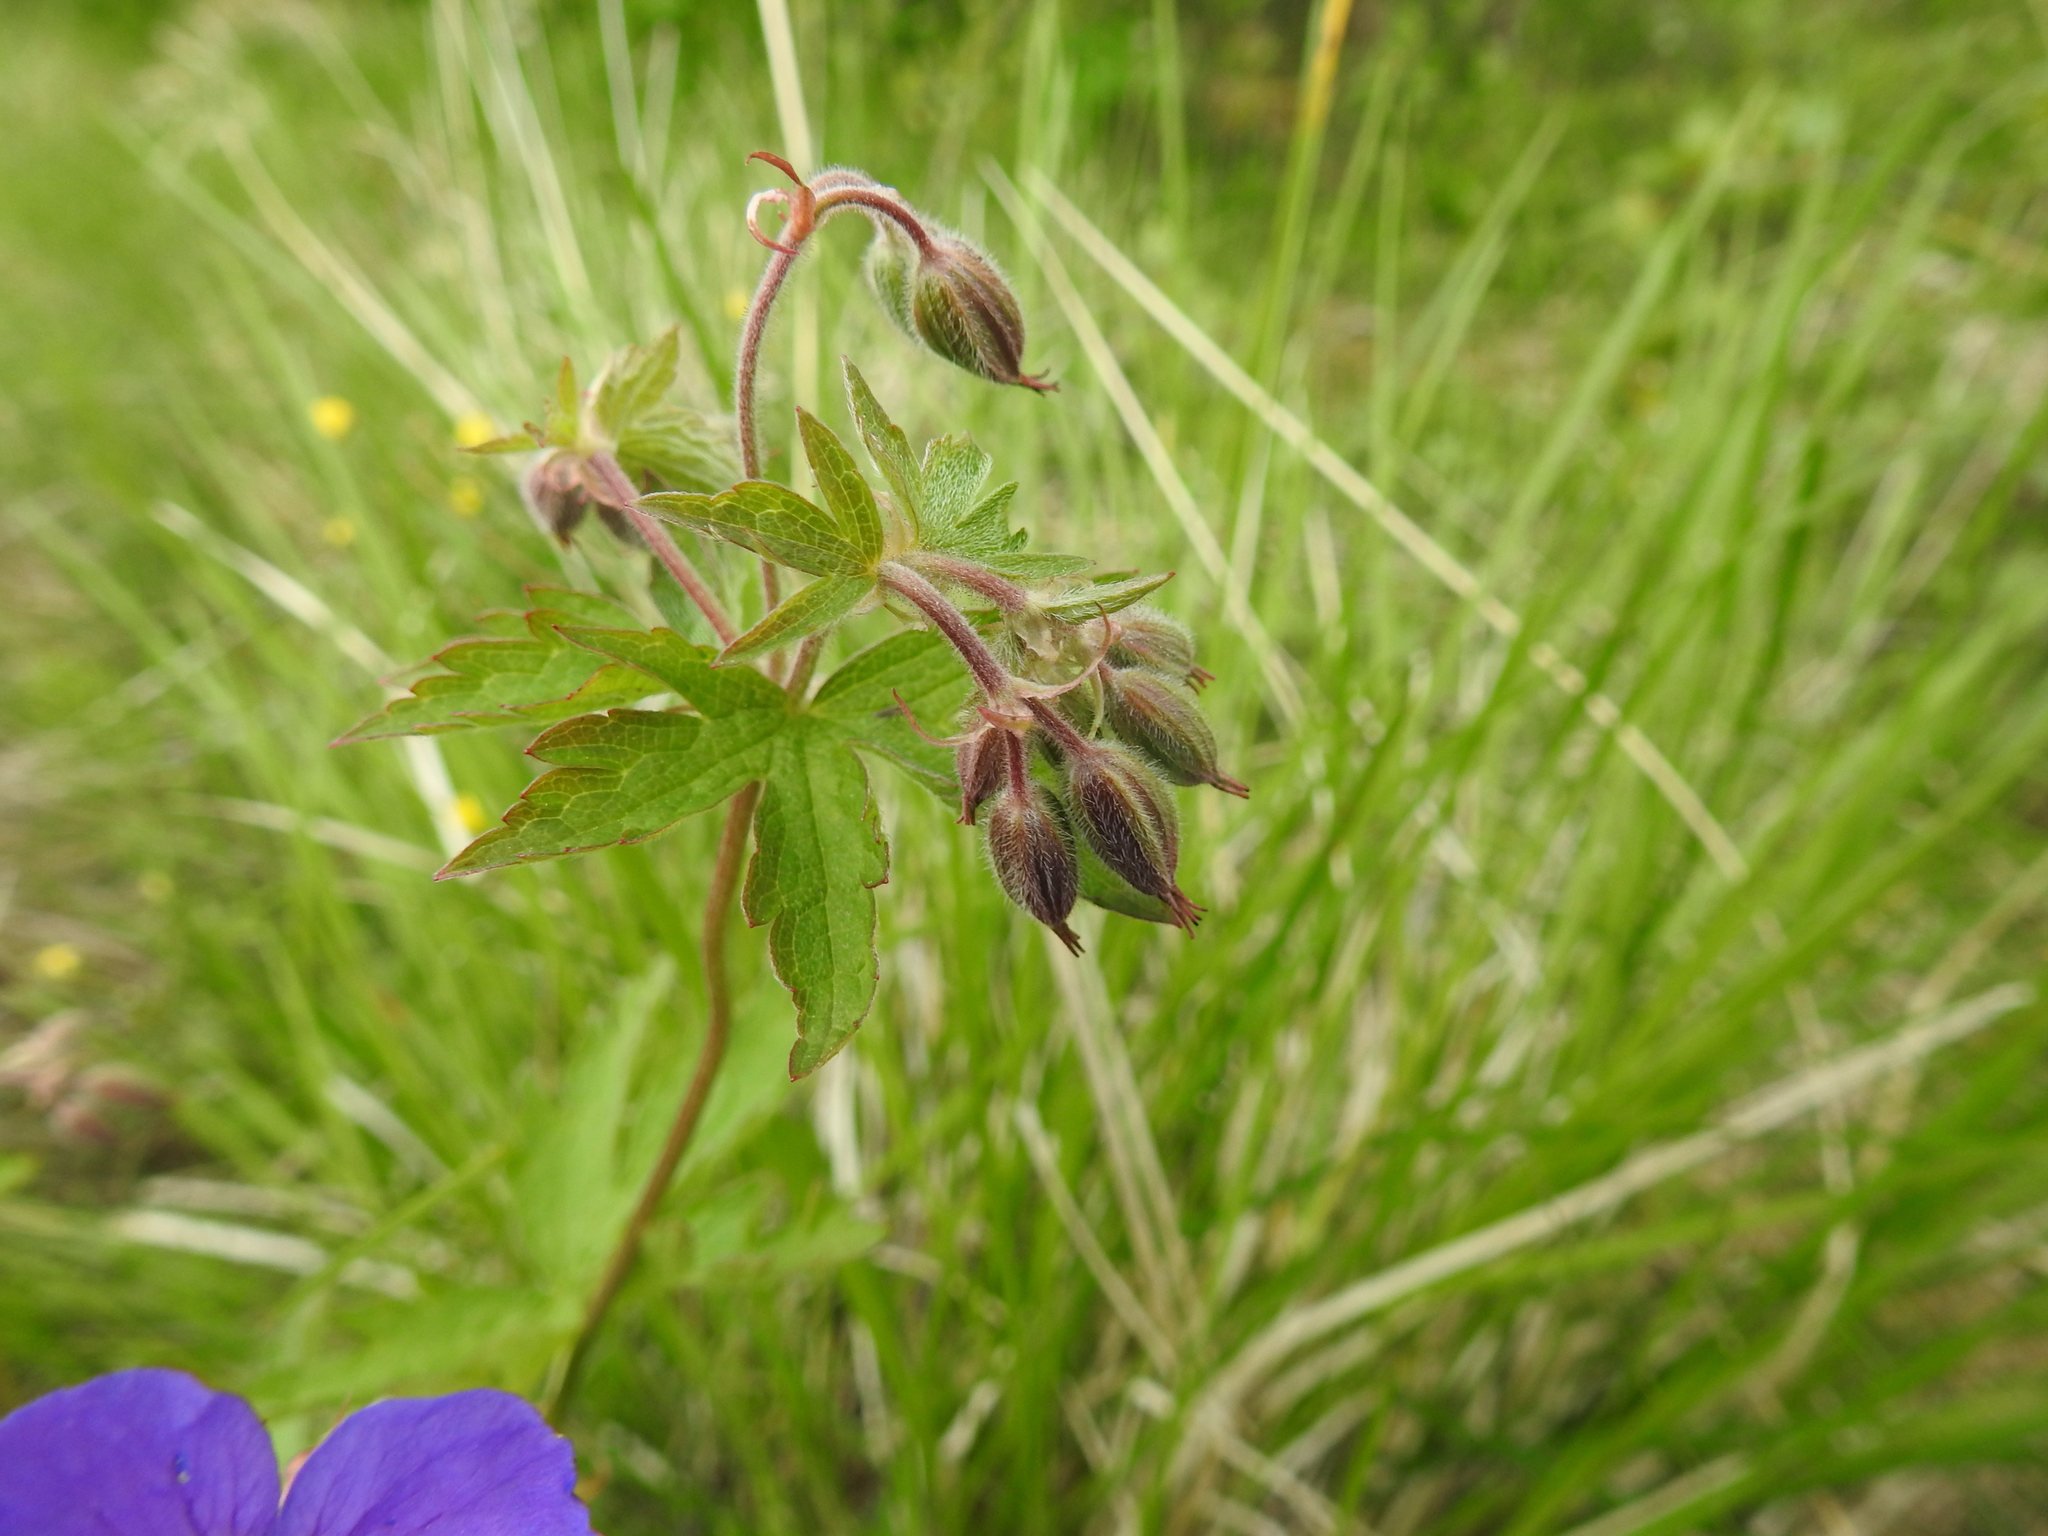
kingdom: Plantae
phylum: Tracheophyta
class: Magnoliopsida
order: Geraniales
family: Geraniaceae
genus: Geranium
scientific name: Geranium sylvaticum
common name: Wood crane's-bill
